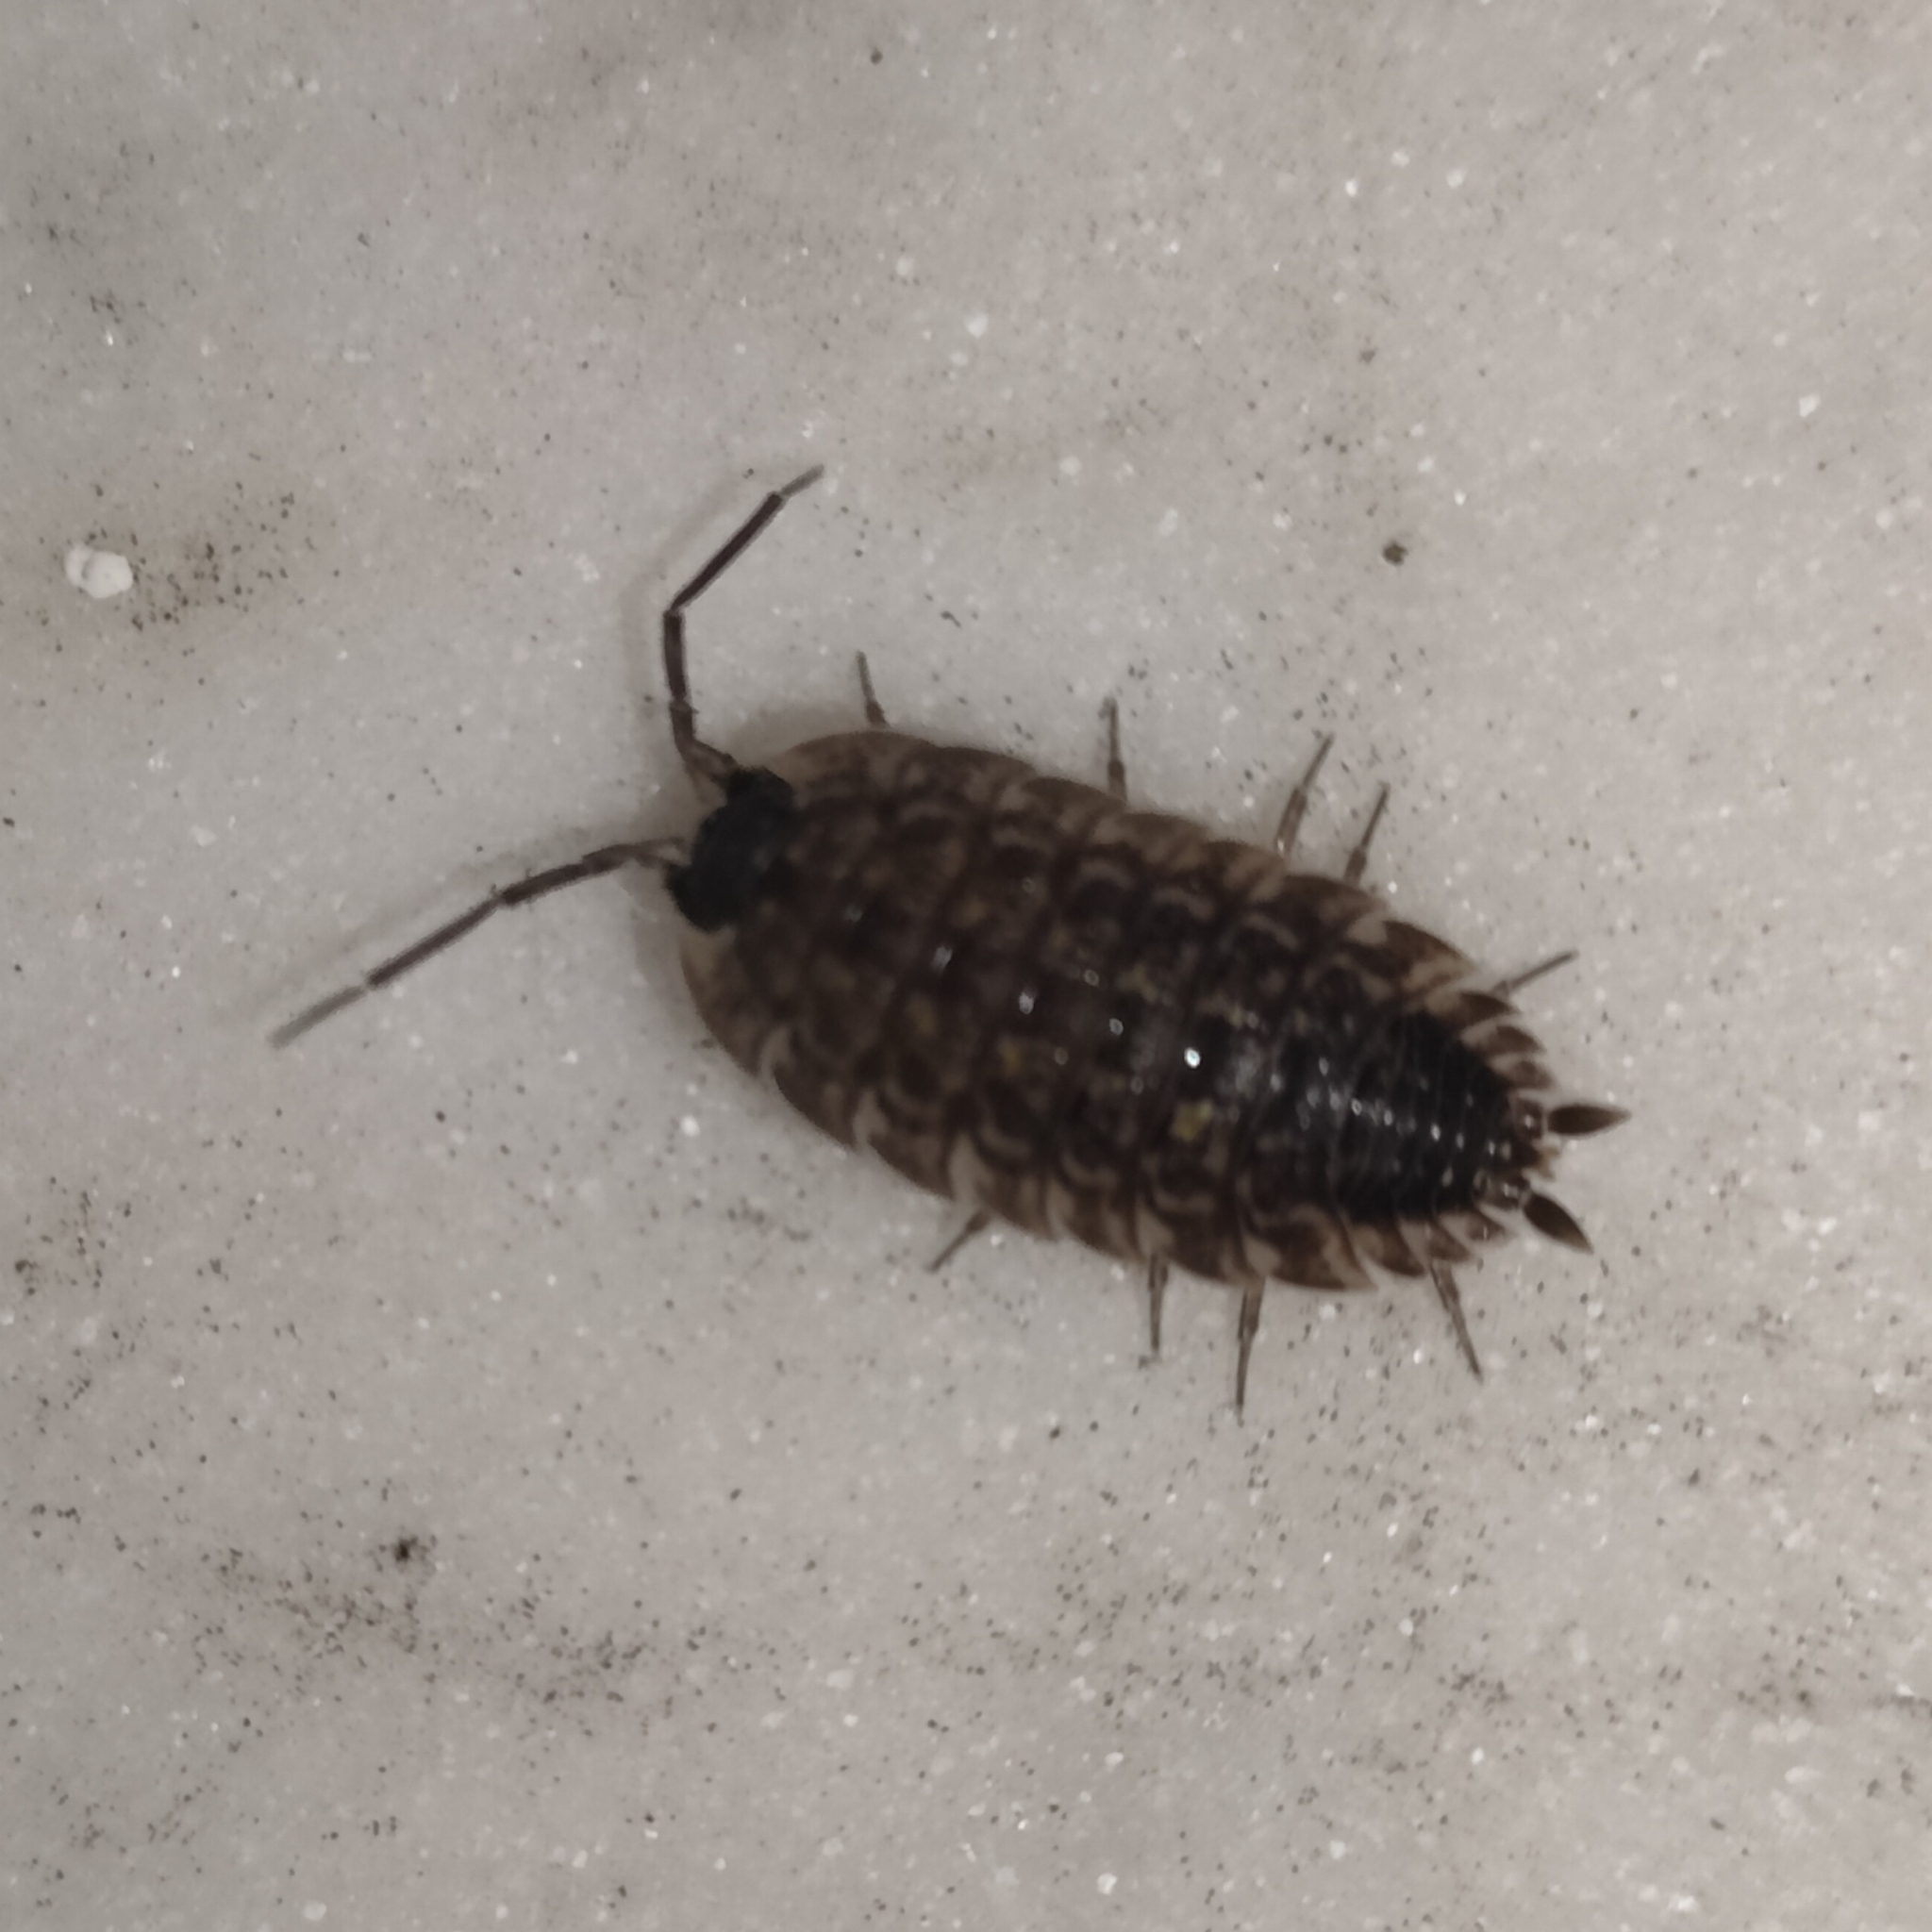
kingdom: Animalia
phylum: Arthropoda
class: Malacostraca
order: Isopoda
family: Porcellionidae
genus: Porcellio
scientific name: Porcellio spinicornis
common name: Painted woodlouse
